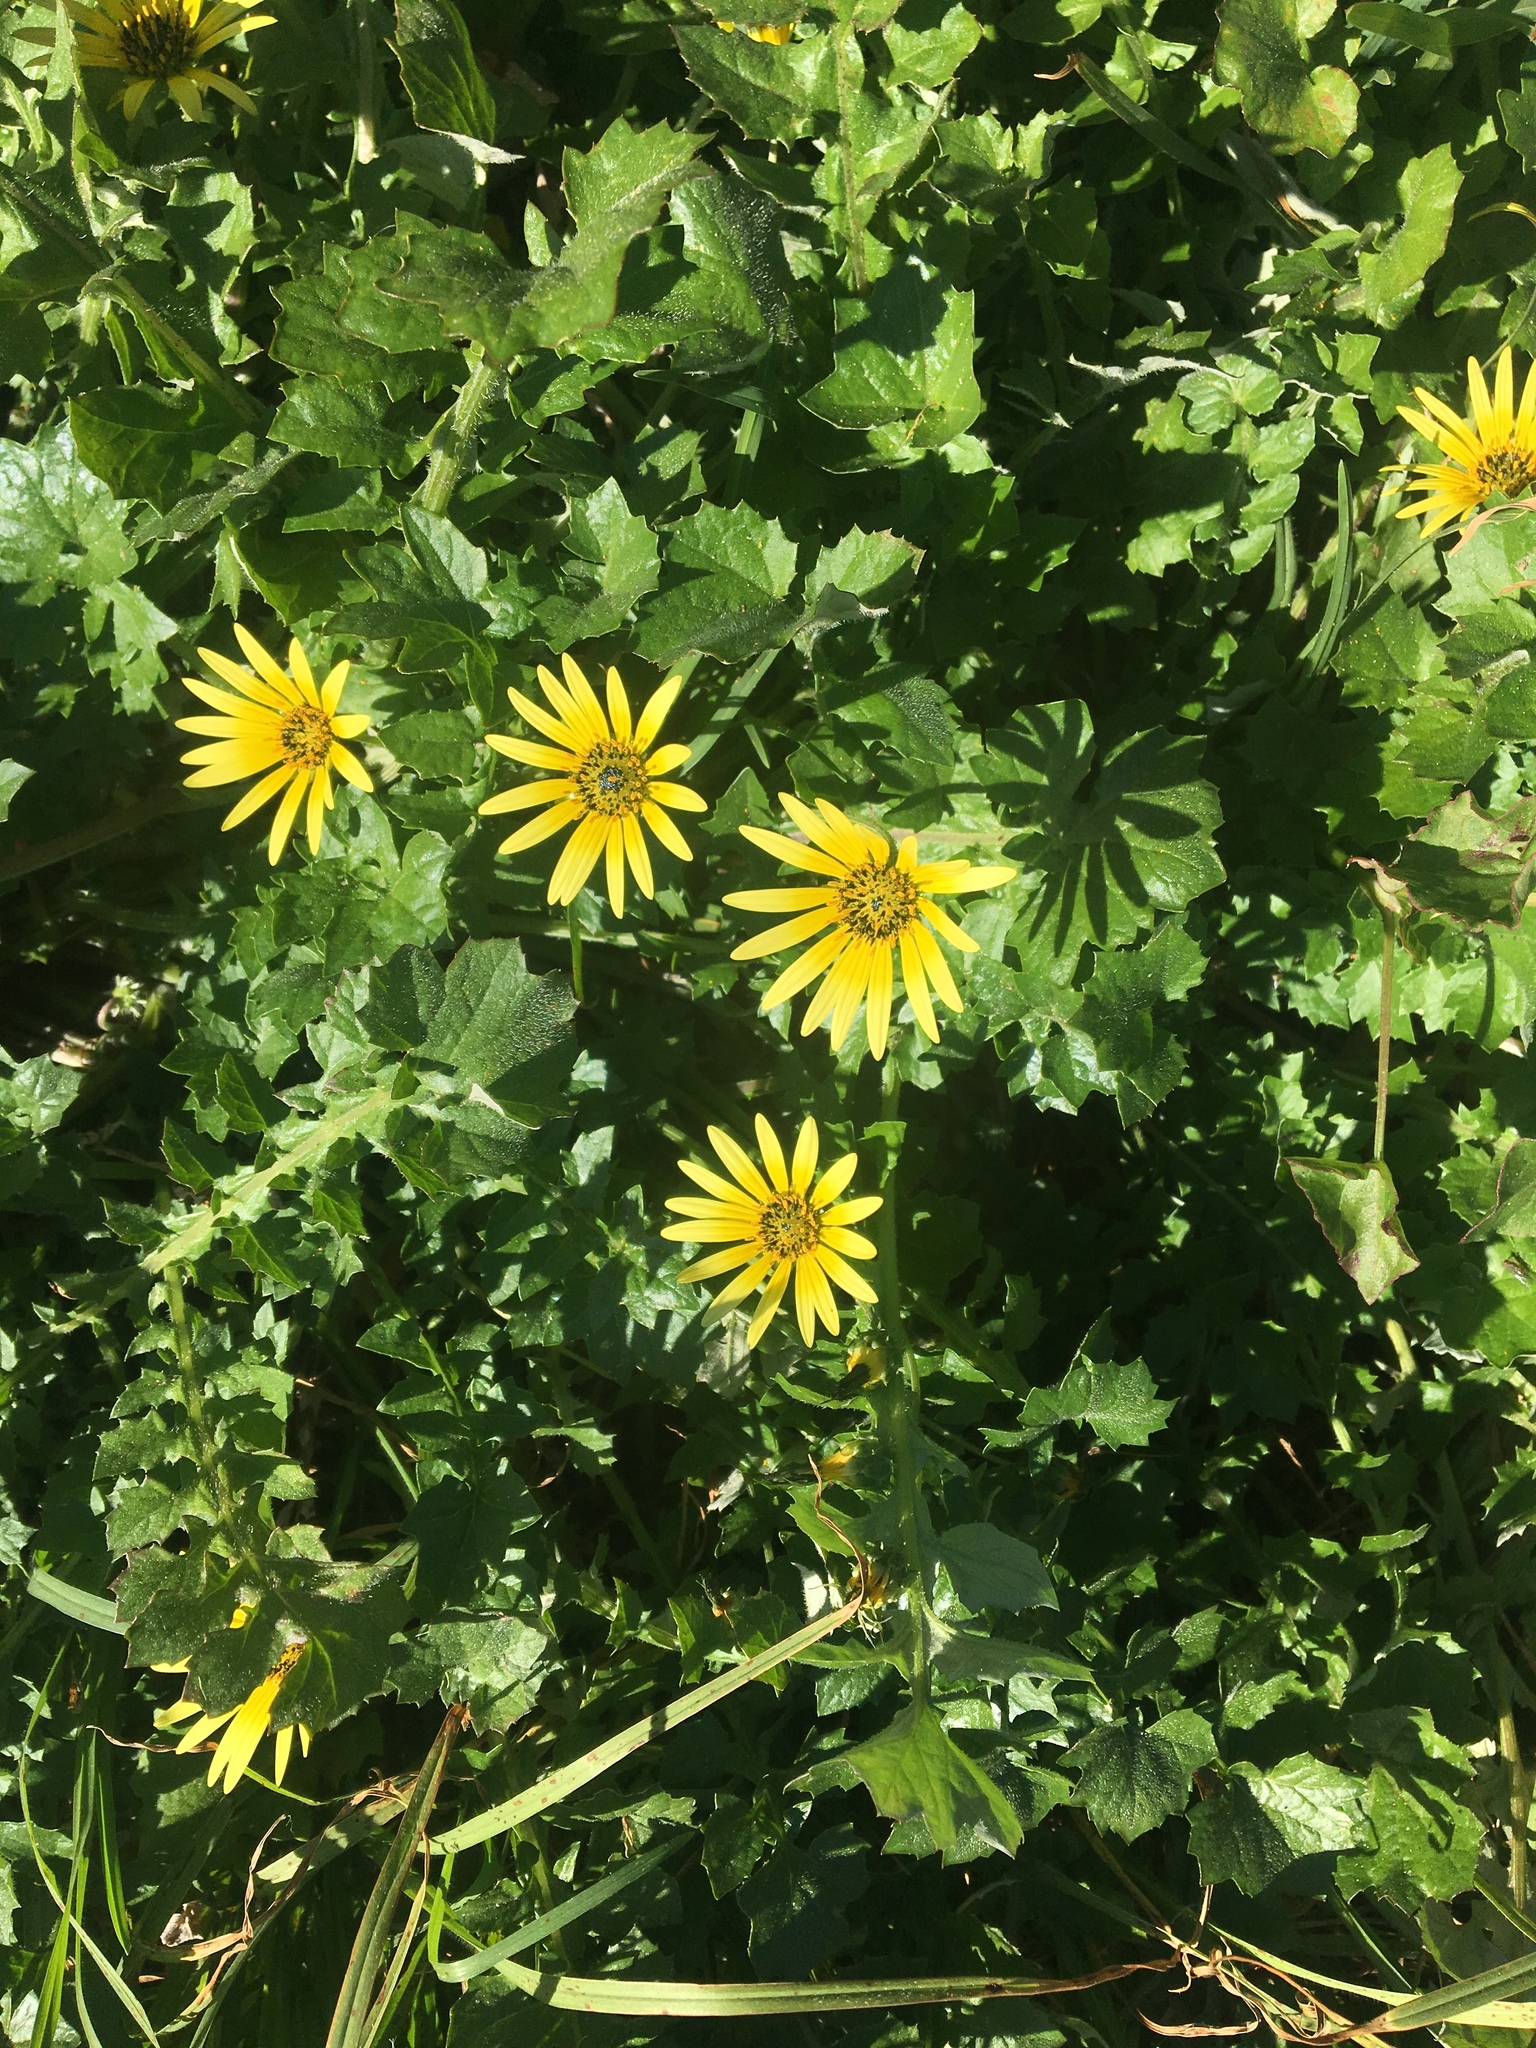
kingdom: Plantae
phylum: Tracheophyta
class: Magnoliopsida
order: Asterales
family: Asteraceae
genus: Arctotheca
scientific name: Arctotheca calendula
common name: Capeweed
